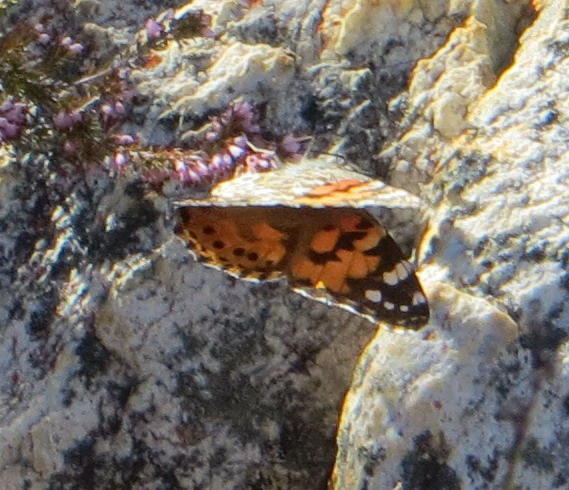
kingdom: Animalia
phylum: Arthropoda
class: Insecta
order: Lepidoptera
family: Nymphalidae
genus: Vanessa
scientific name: Vanessa cardui
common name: Painted lady
